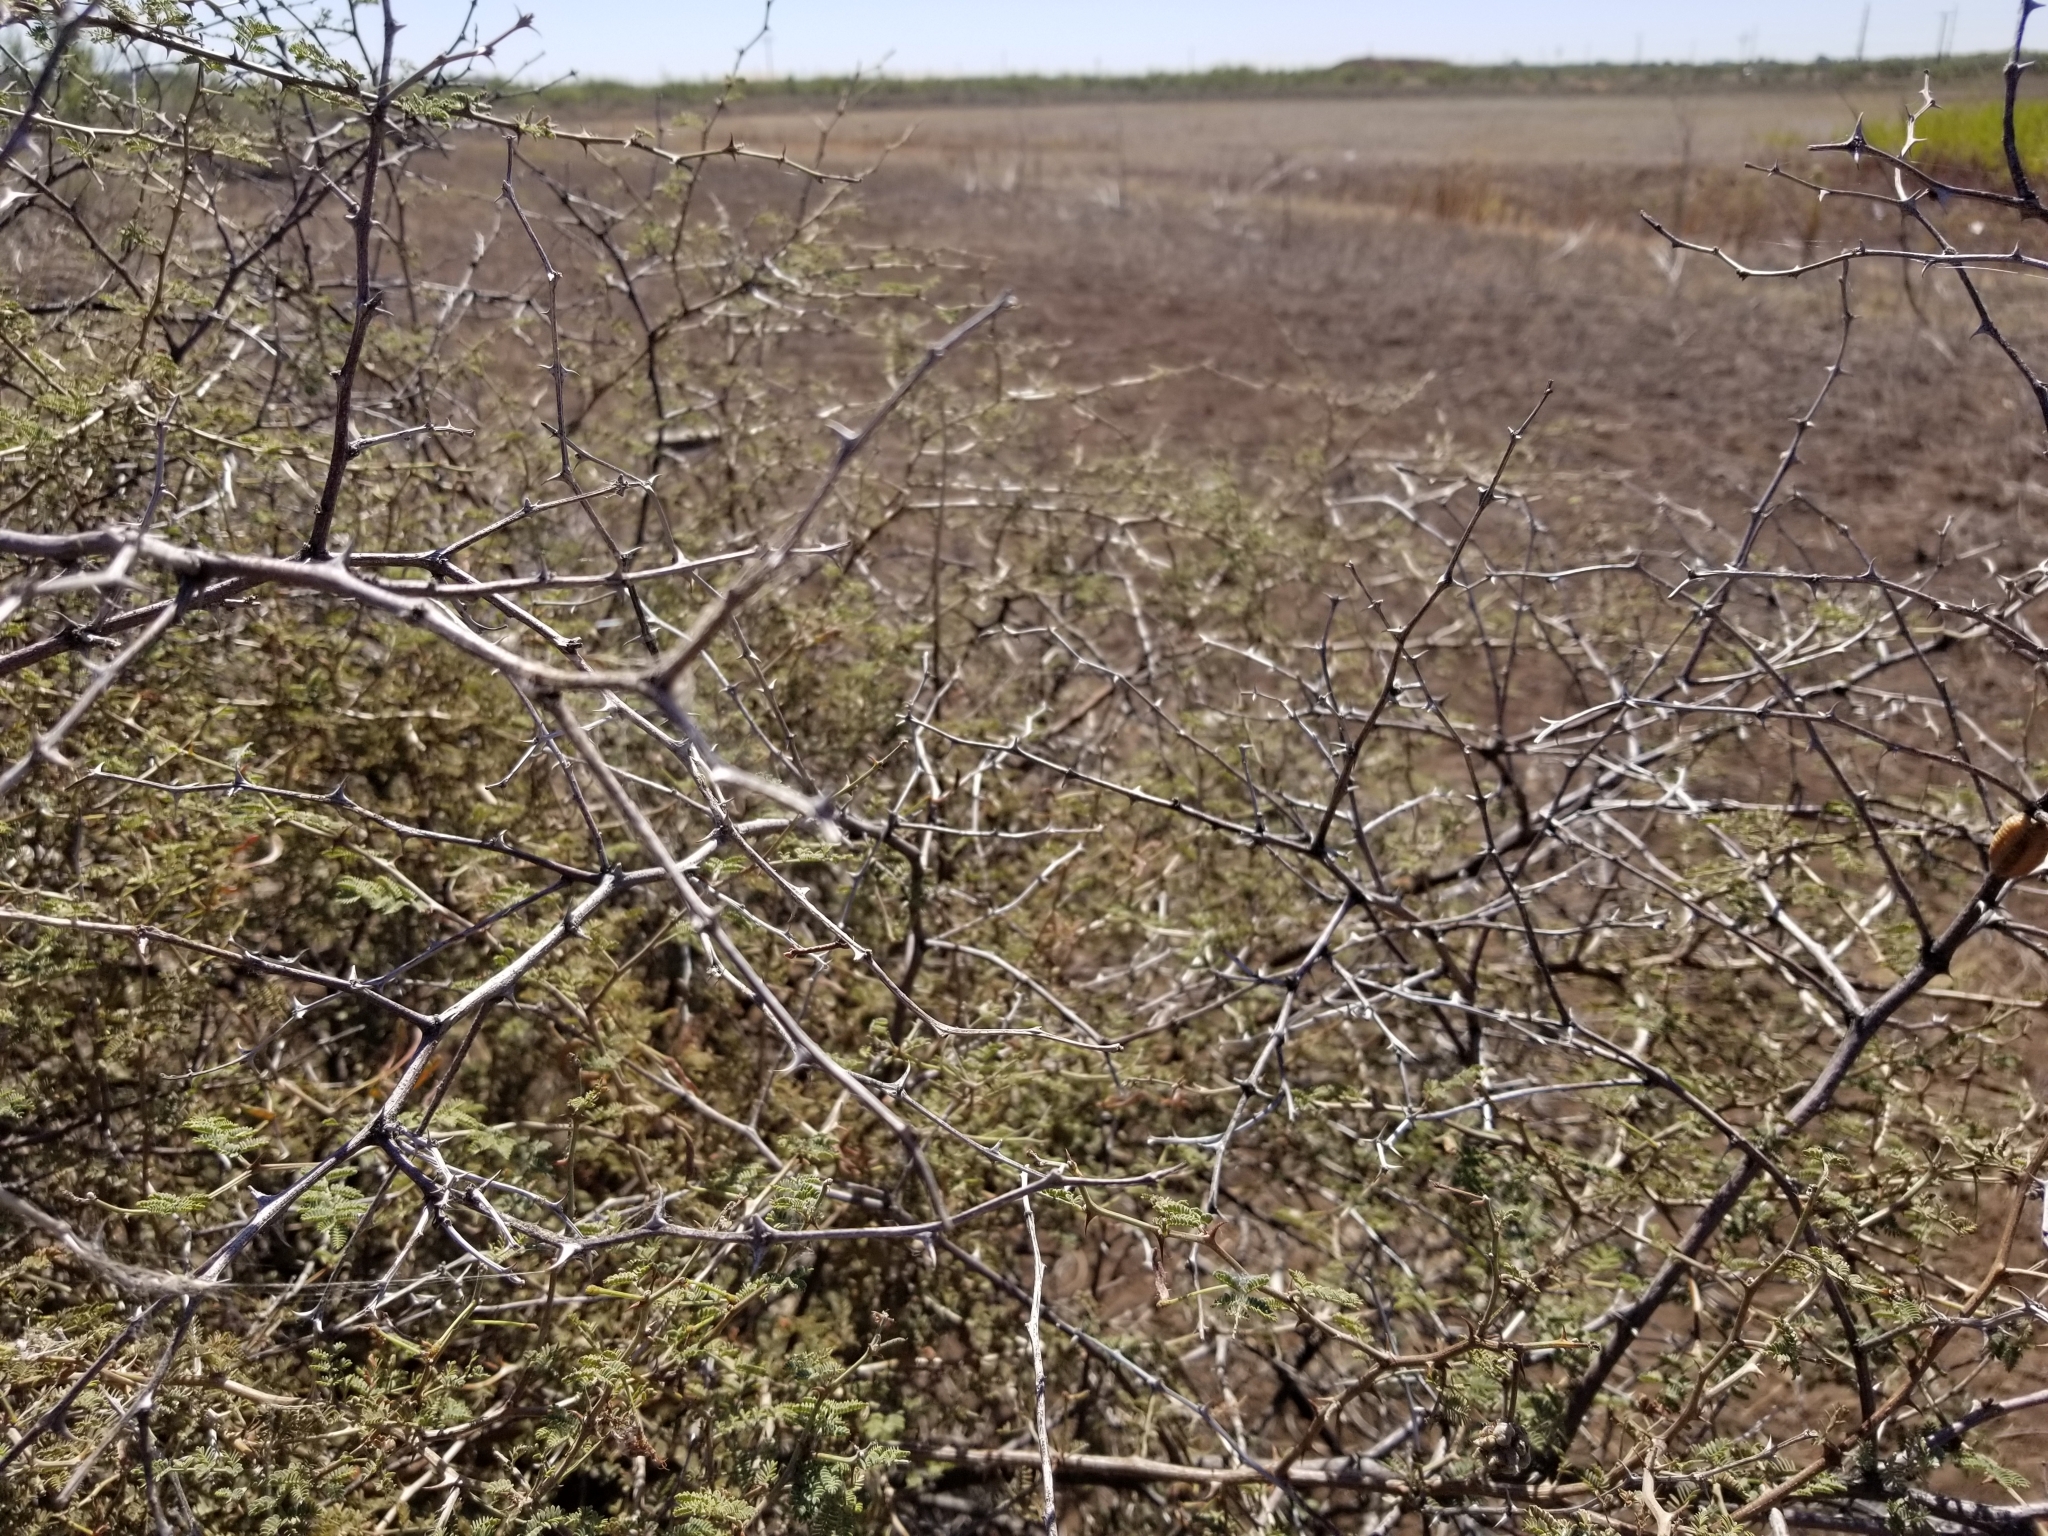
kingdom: Plantae
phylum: Tracheophyta
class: Magnoliopsida
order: Fabales
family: Fabaceae
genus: Mimosa
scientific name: Mimosa aculeaticarpa
